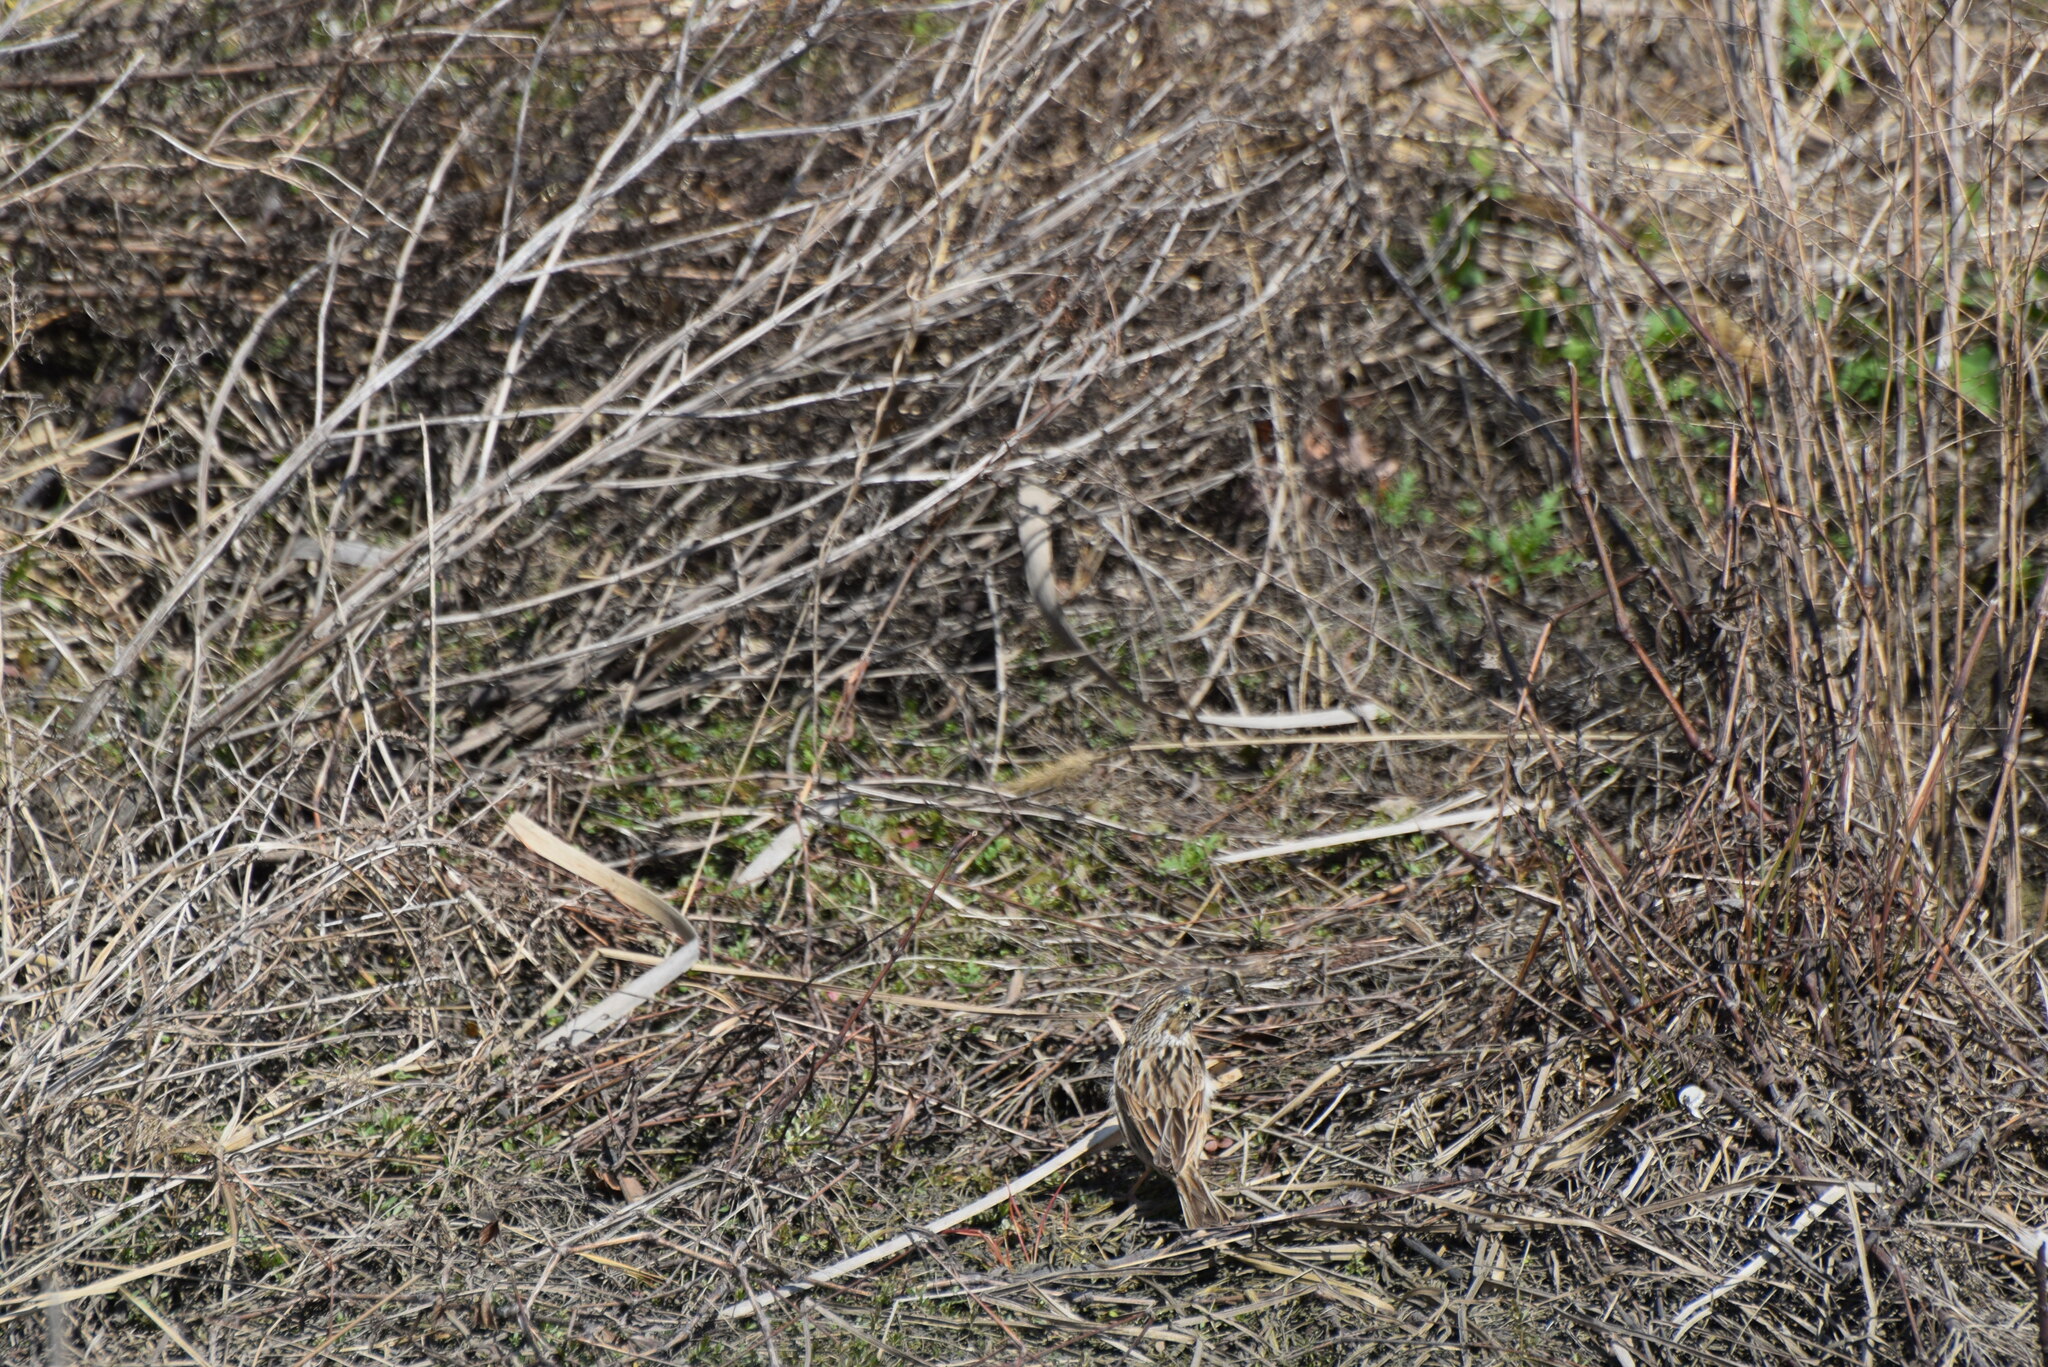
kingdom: Animalia
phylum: Chordata
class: Aves
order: Passeriformes
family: Passerellidae
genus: Passerculus
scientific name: Passerculus sandwichensis
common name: Savannah sparrow
